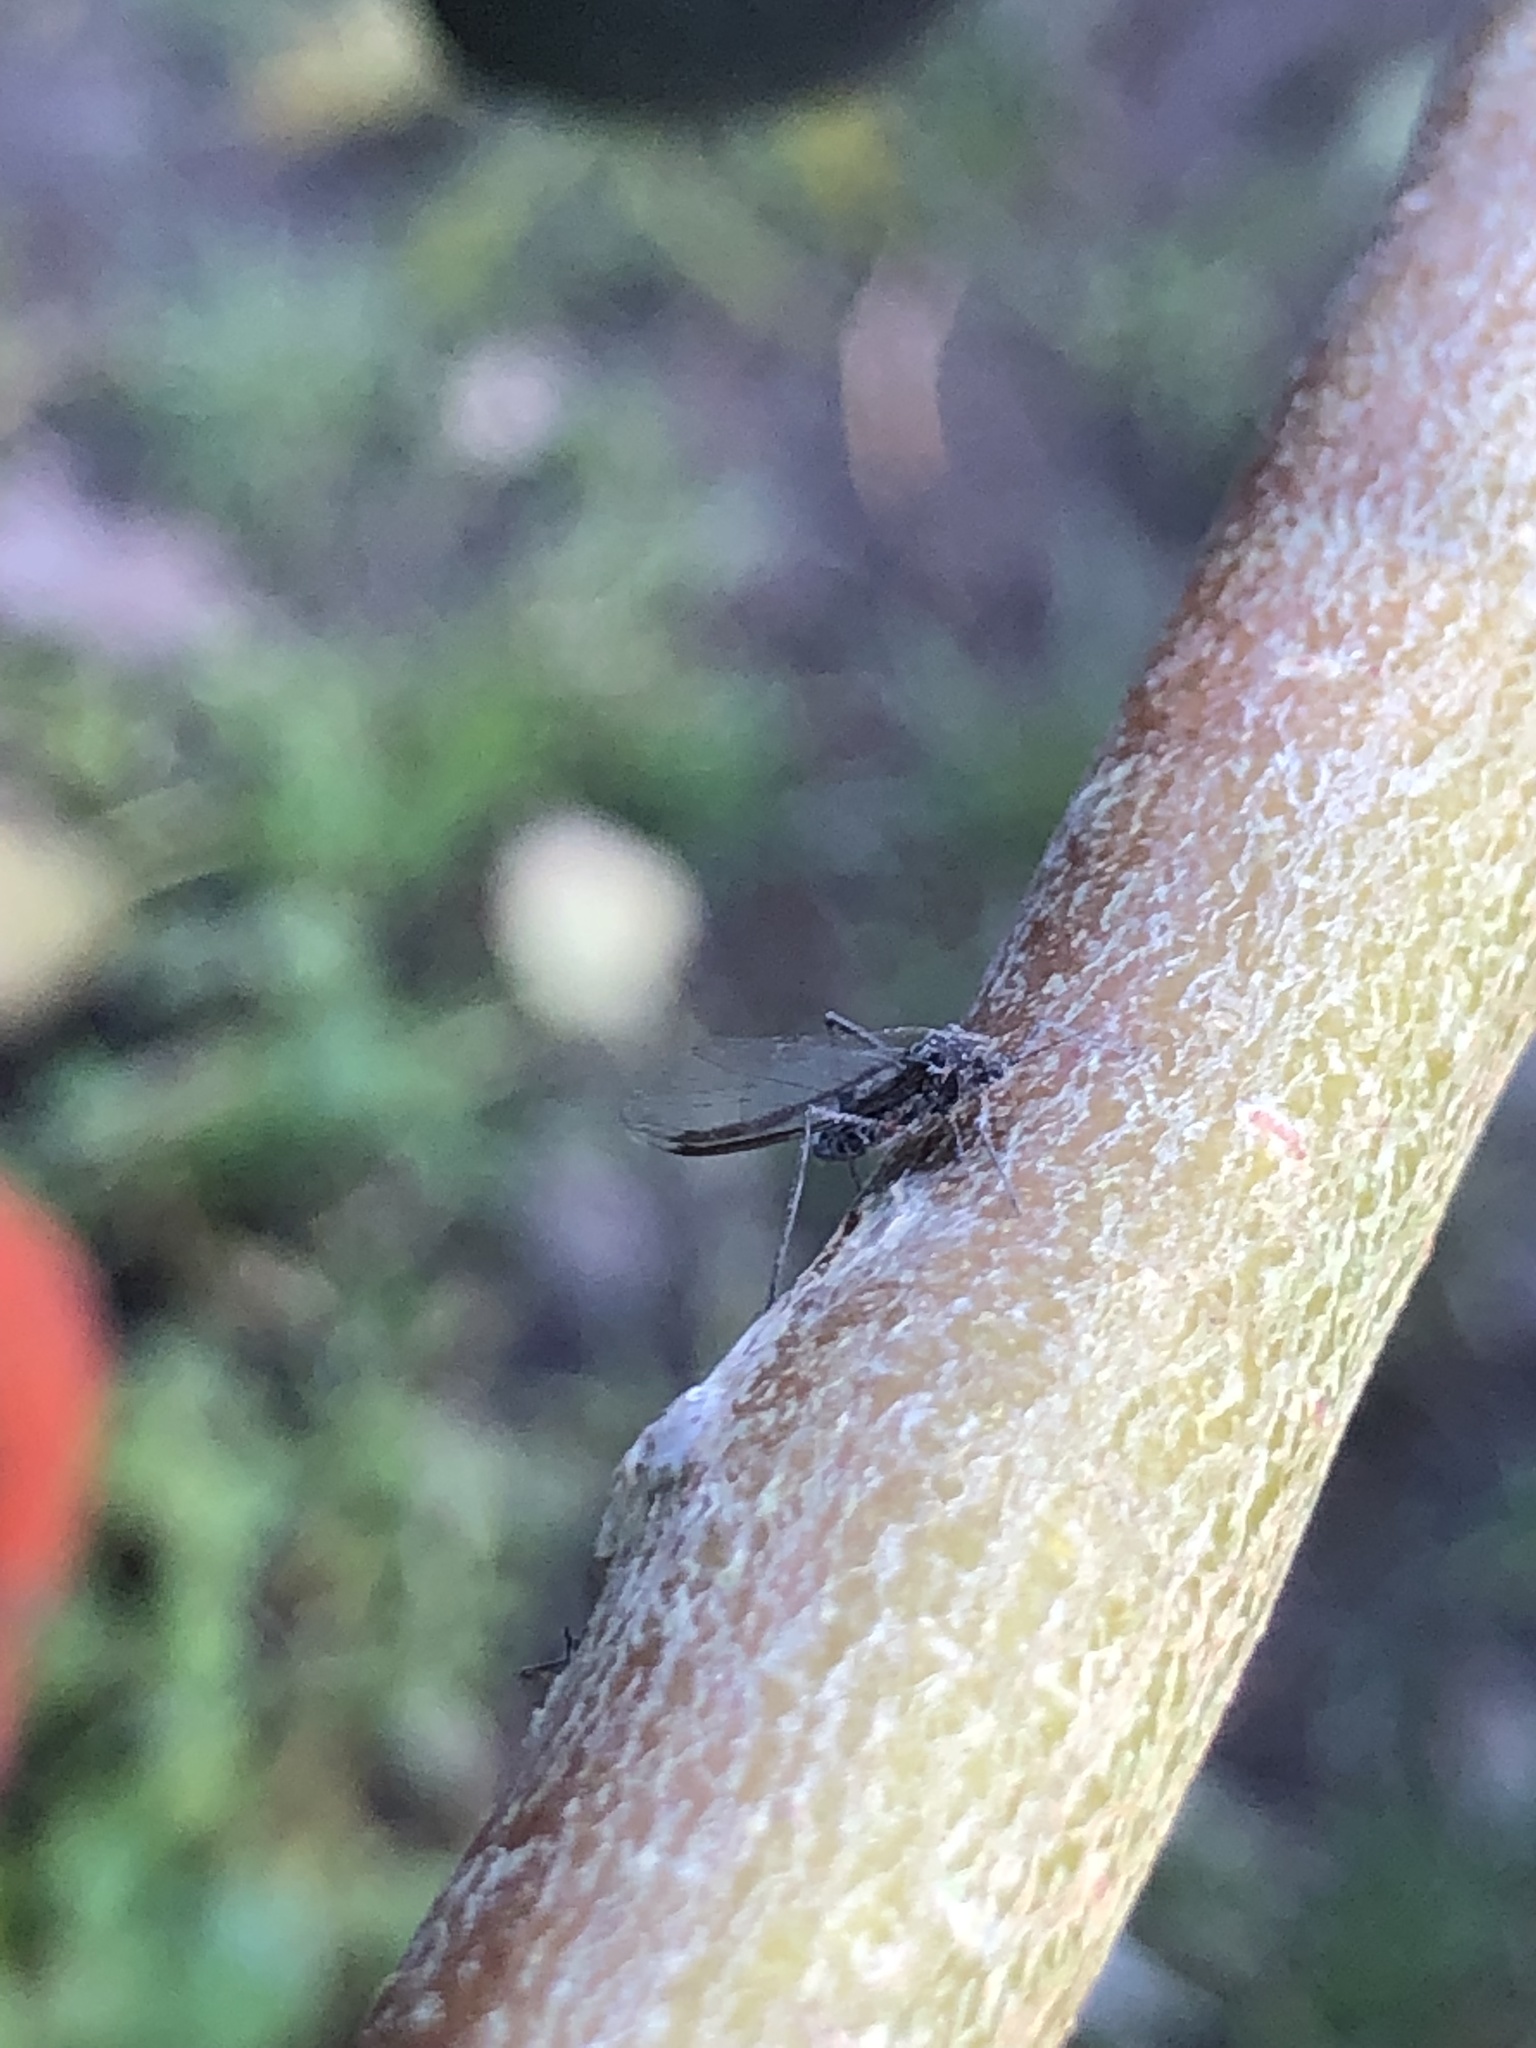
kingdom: Animalia
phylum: Arthropoda
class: Insecta
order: Hemiptera
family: Aphididae
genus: Tuberolachnus
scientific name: Tuberolachnus salignus
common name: Giant willow aphid
